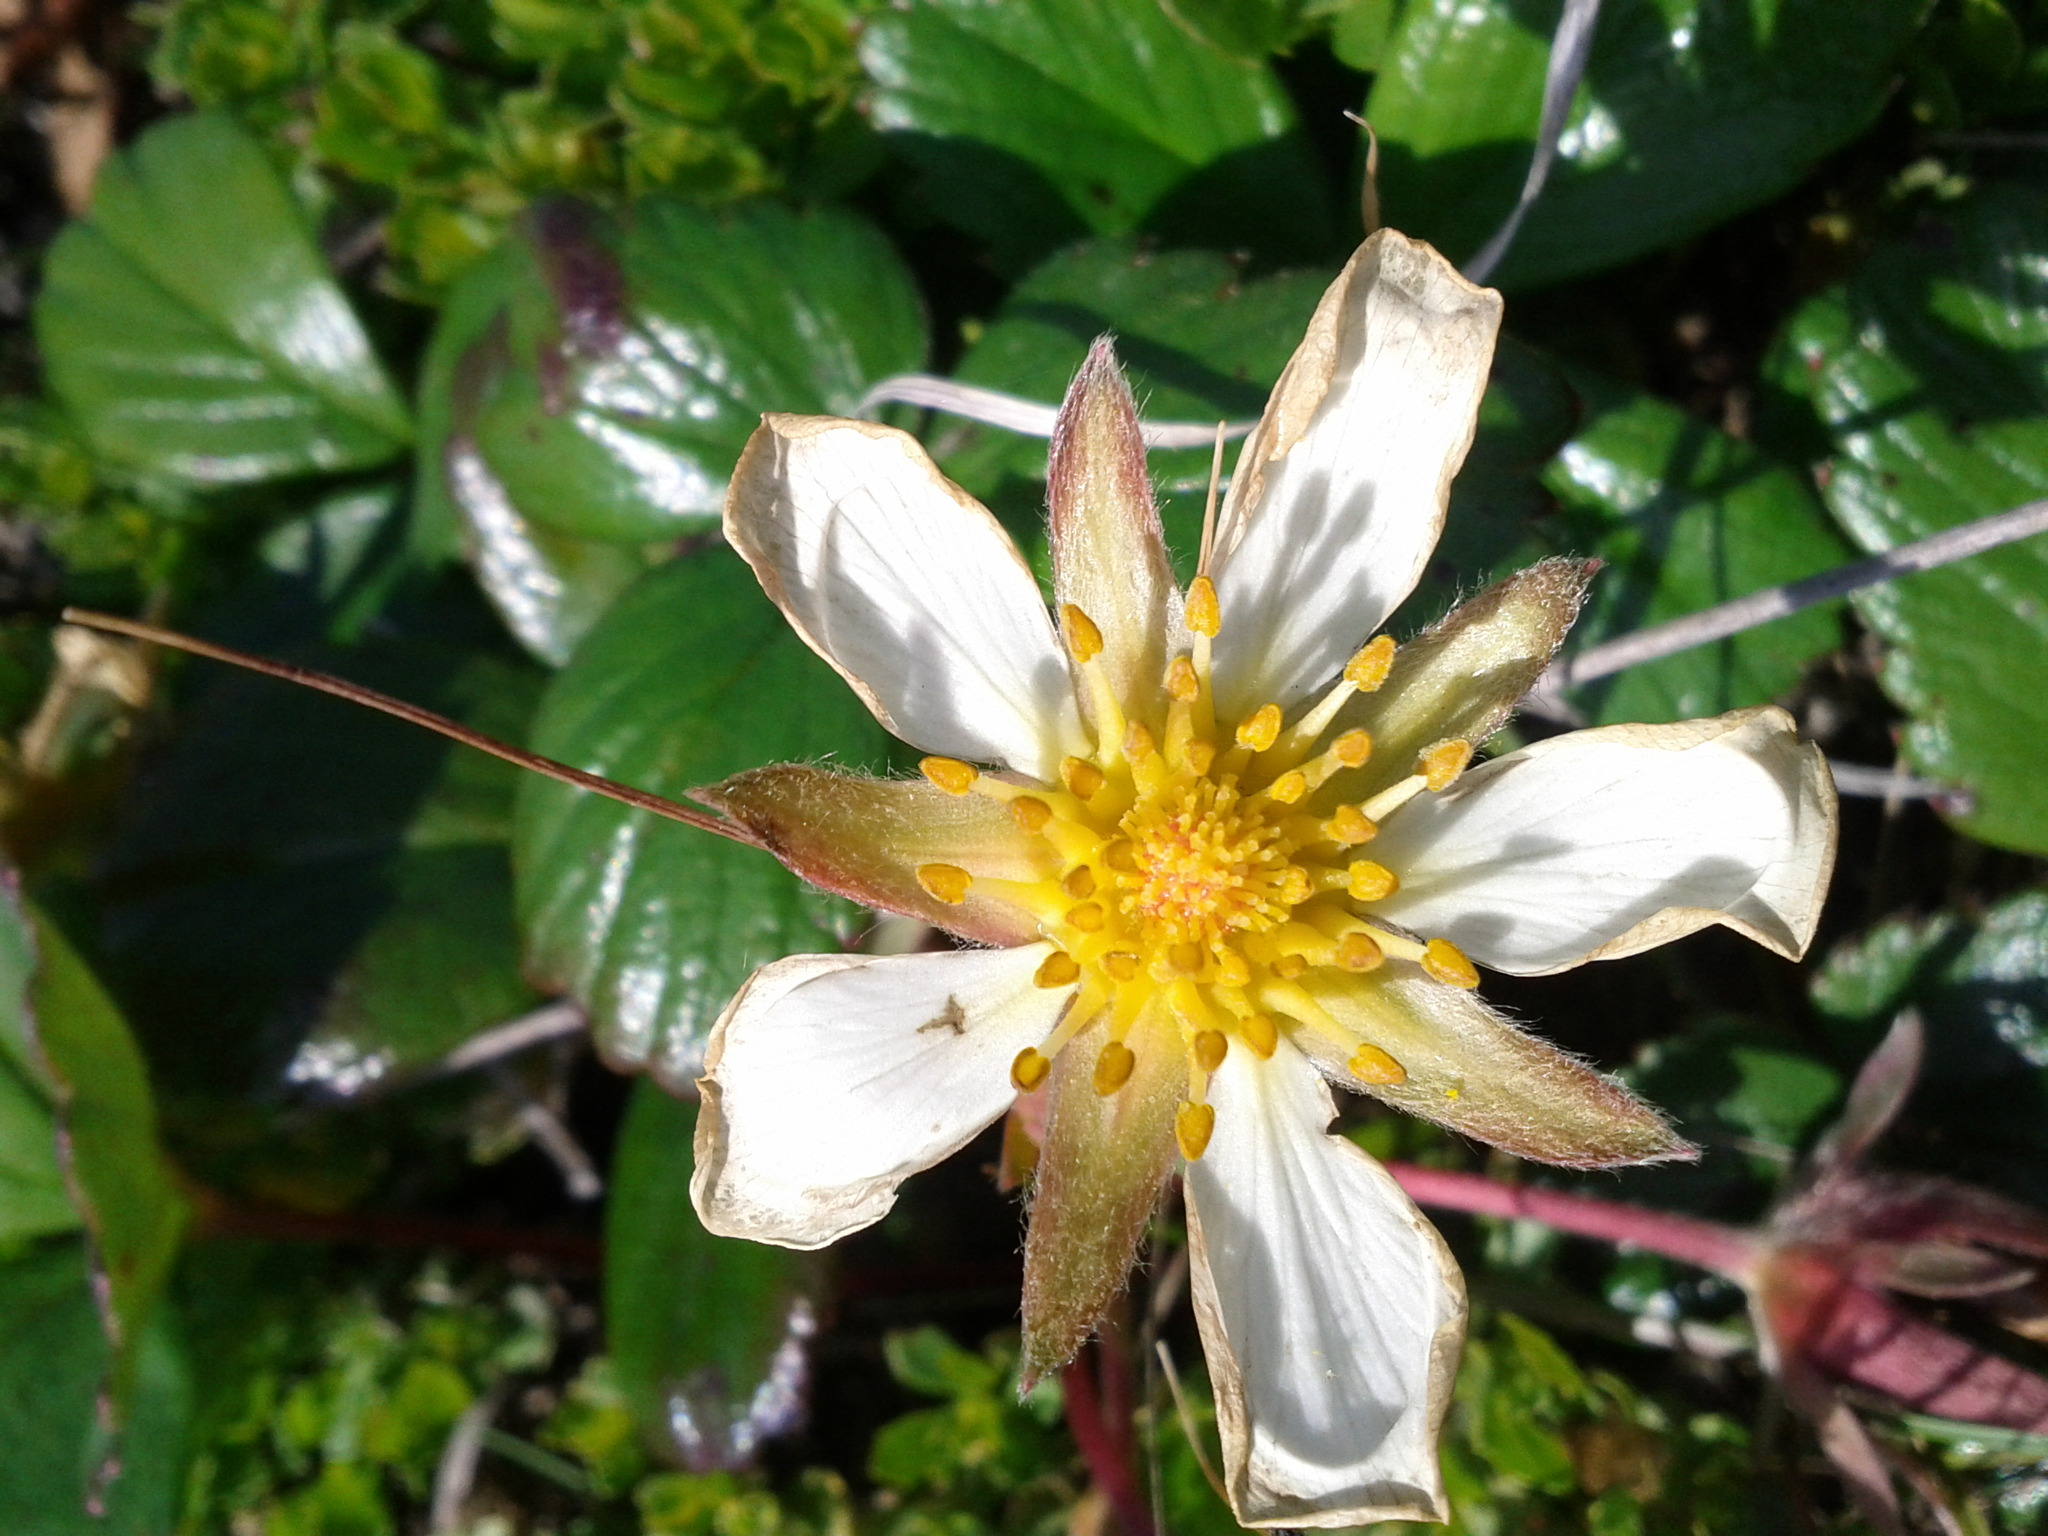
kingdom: Plantae
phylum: Tracheophyta
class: Magnoliopsida
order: Rosales
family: Rosaceae
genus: Fragaria
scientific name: Fragaria chiloensis
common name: Beach strawberry
